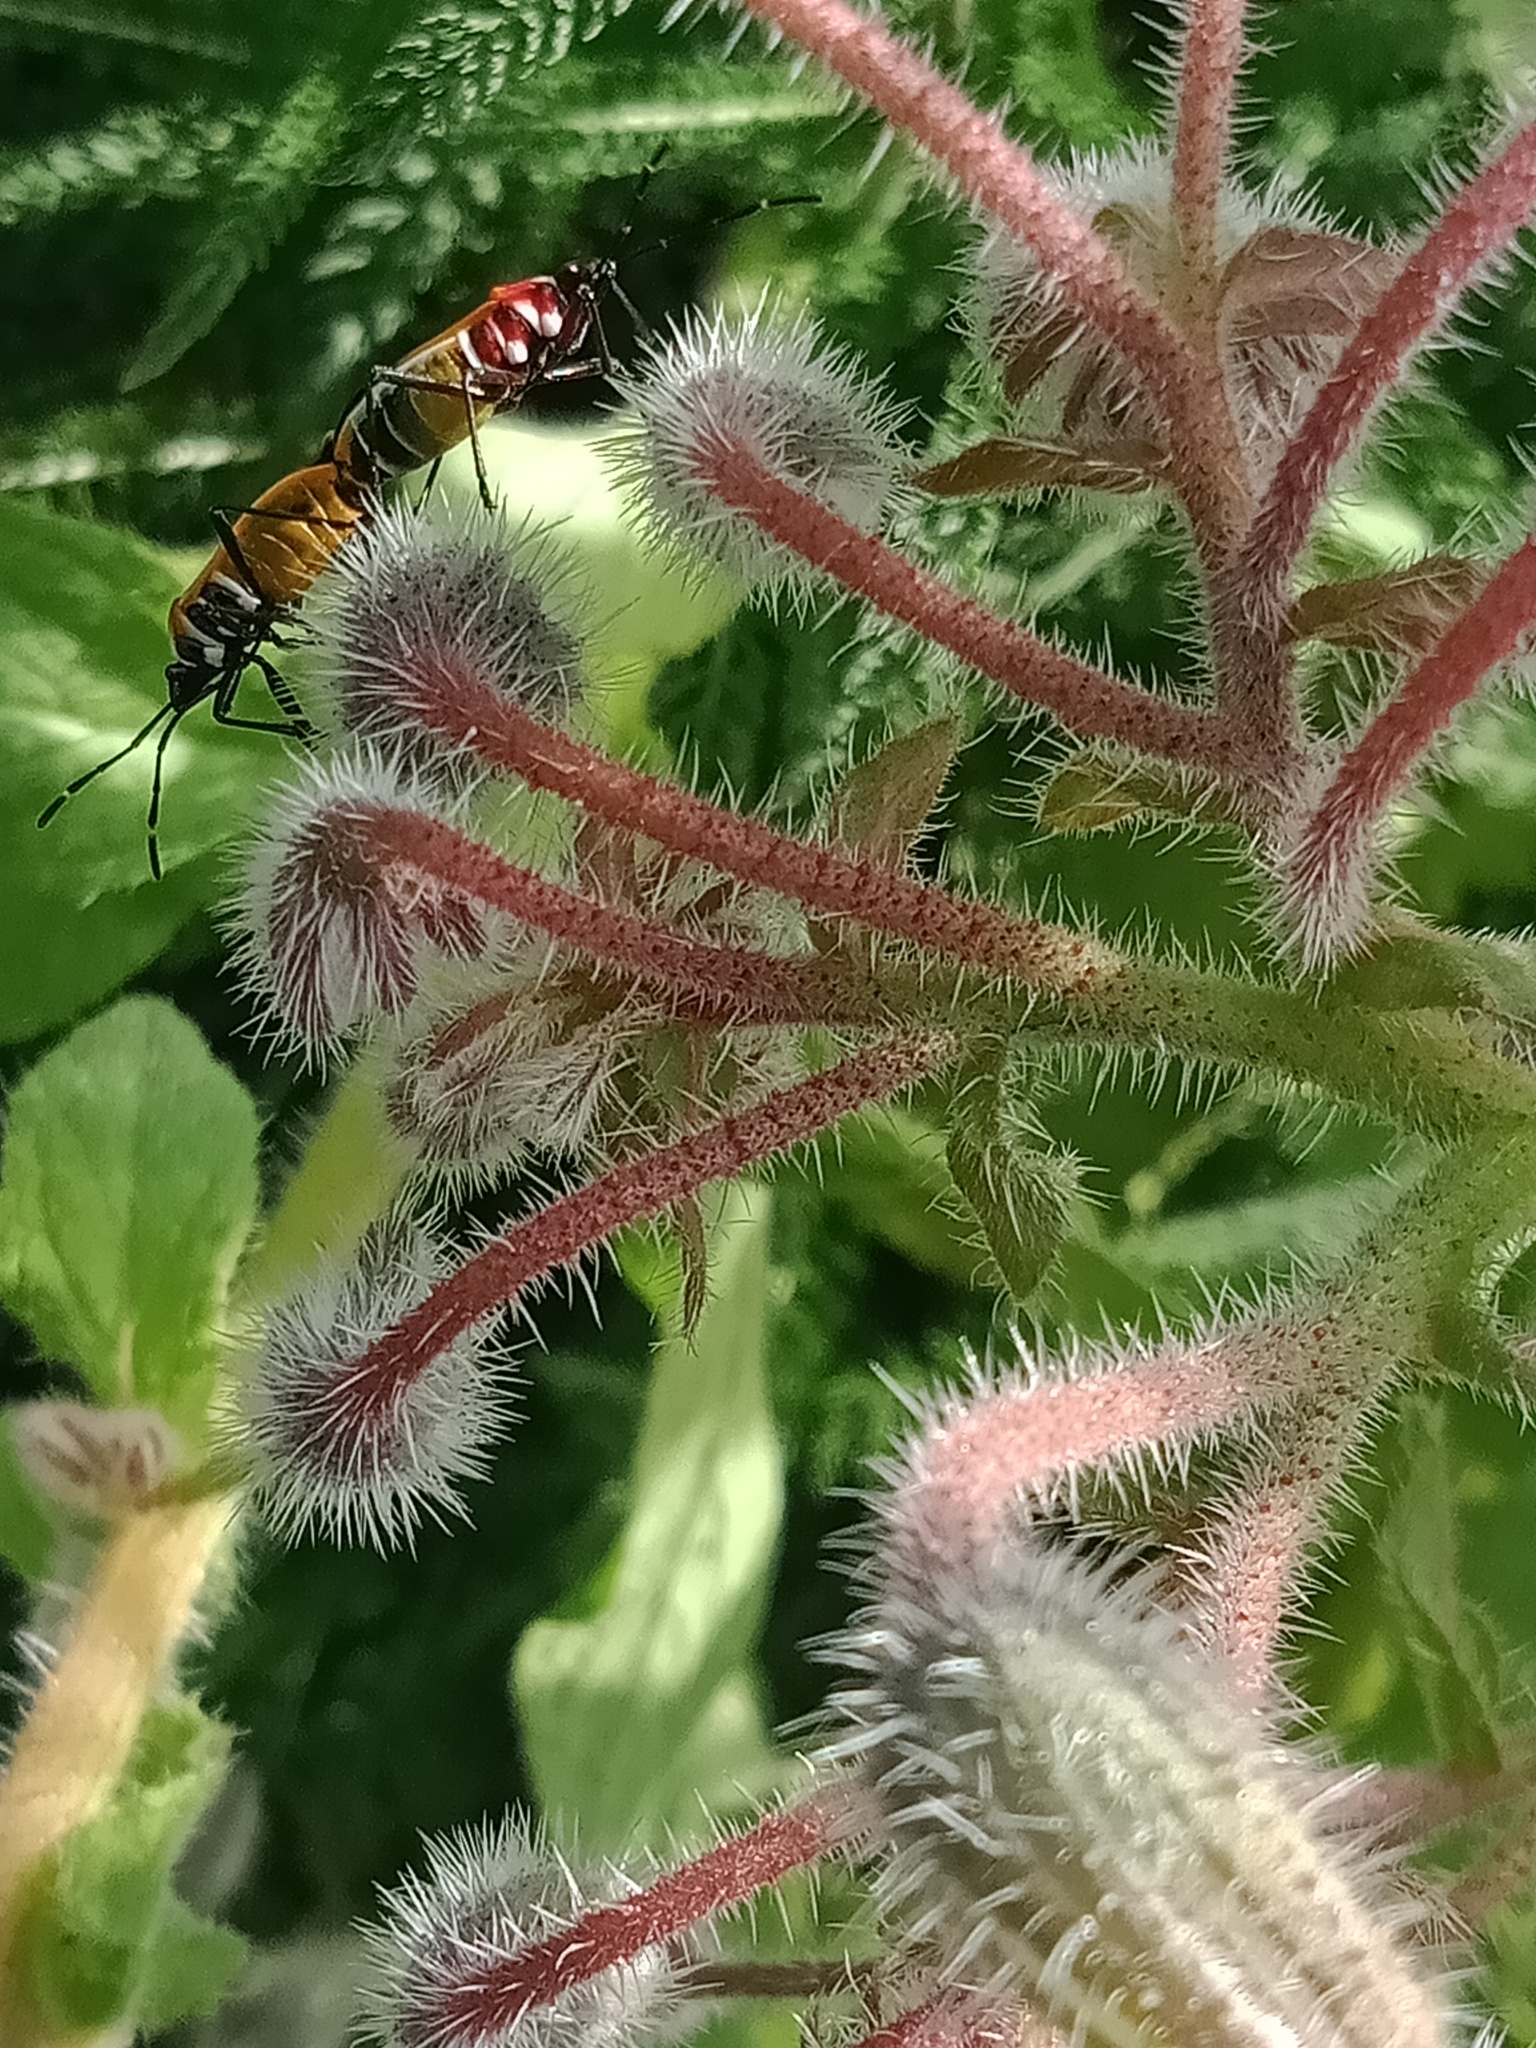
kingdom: Animalia
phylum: Arthropoda
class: Insecta
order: Hemiptera
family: Pyrrhocoridae
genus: Dindymus
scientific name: Dindymus
